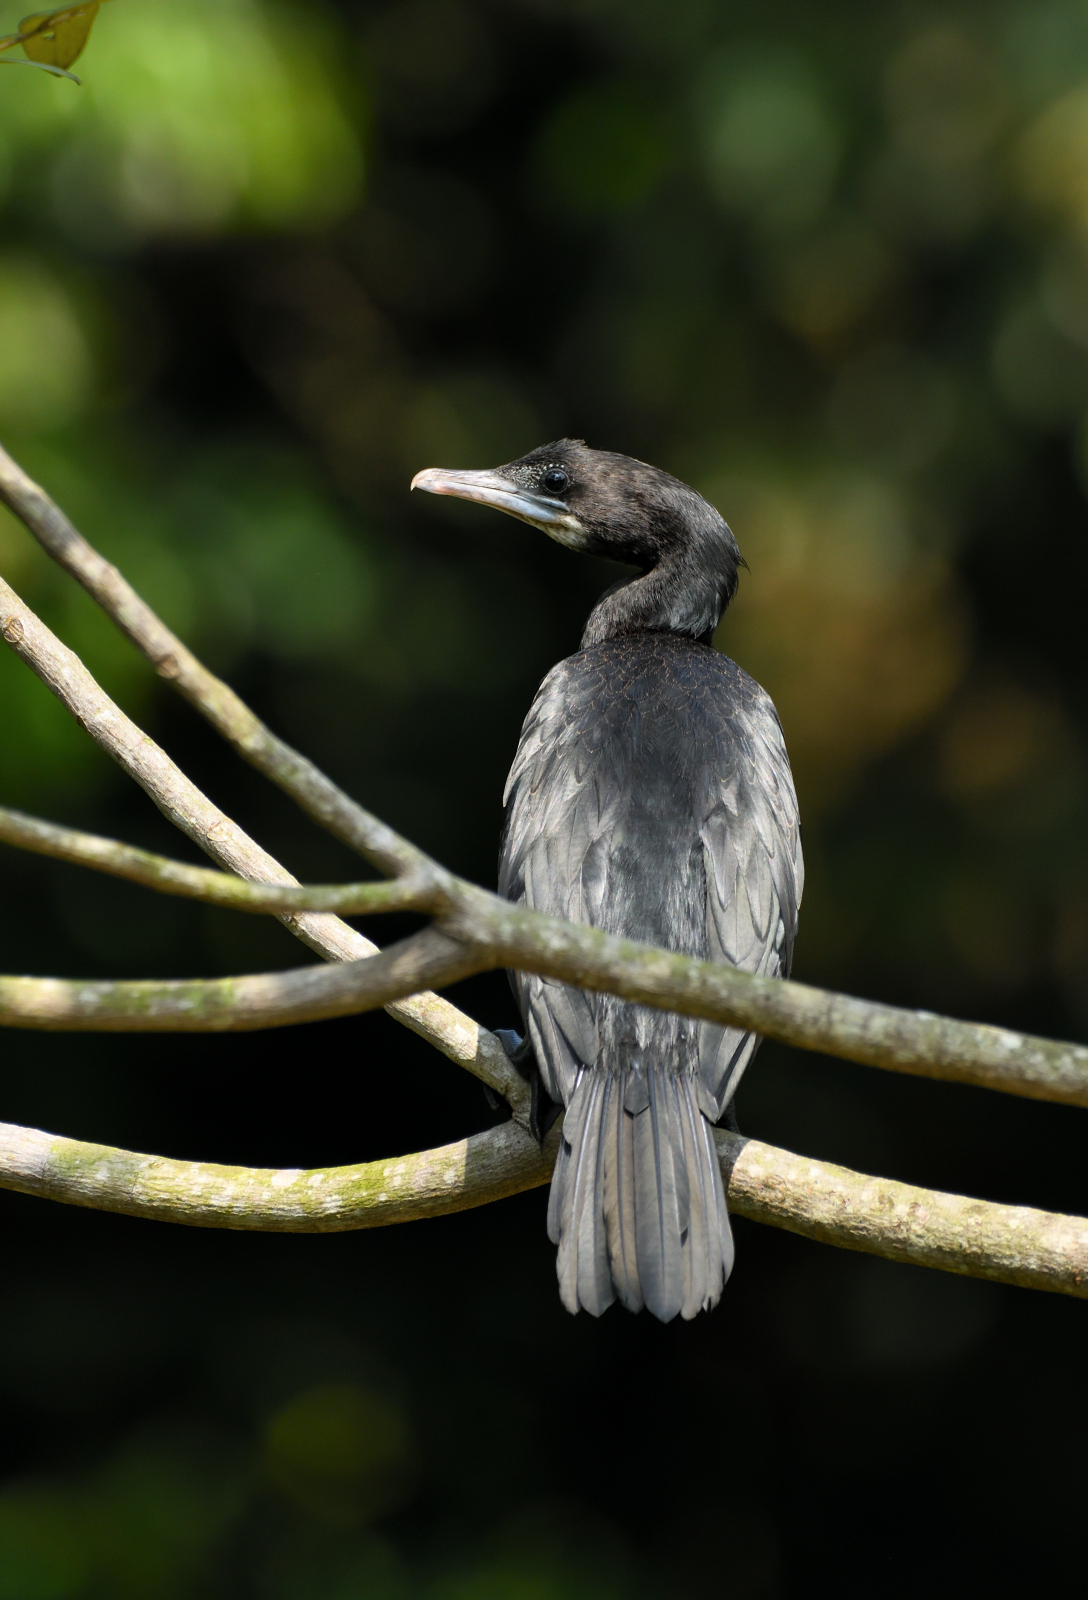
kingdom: Animalia
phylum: Chordata
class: Aves
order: Suliformes
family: Phalacrocoracidae
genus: Microcarbo
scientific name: Microcarbo niger
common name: Little cormorant
